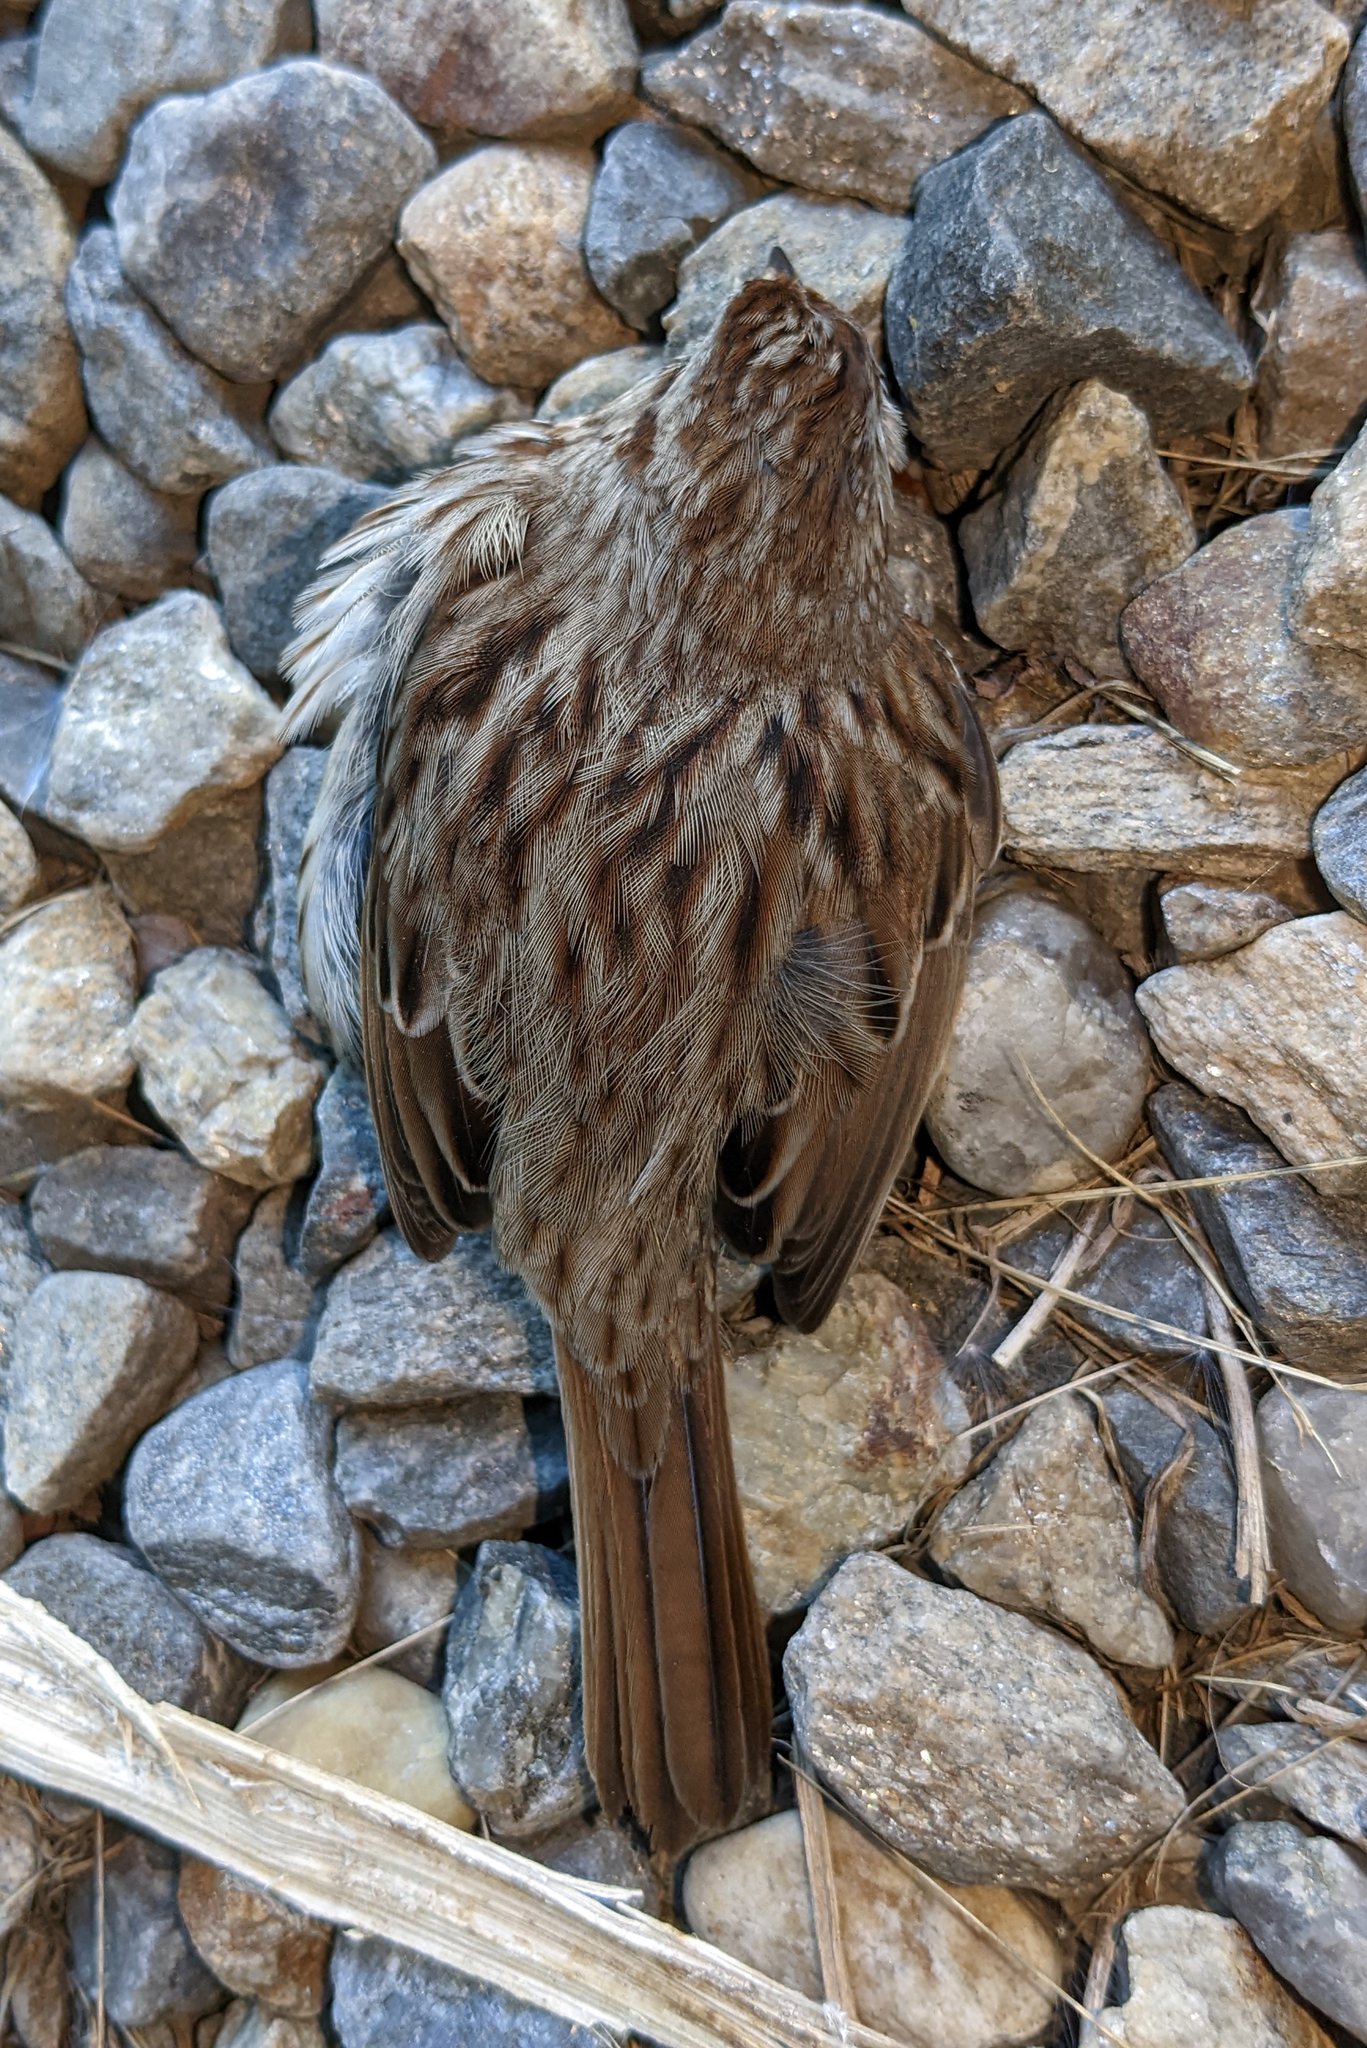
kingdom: Animalia
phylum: Chordata
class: Aves
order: Passeriformes
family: Passerellidae
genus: Melospiza
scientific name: Melospiza melodia
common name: Song sparrow
